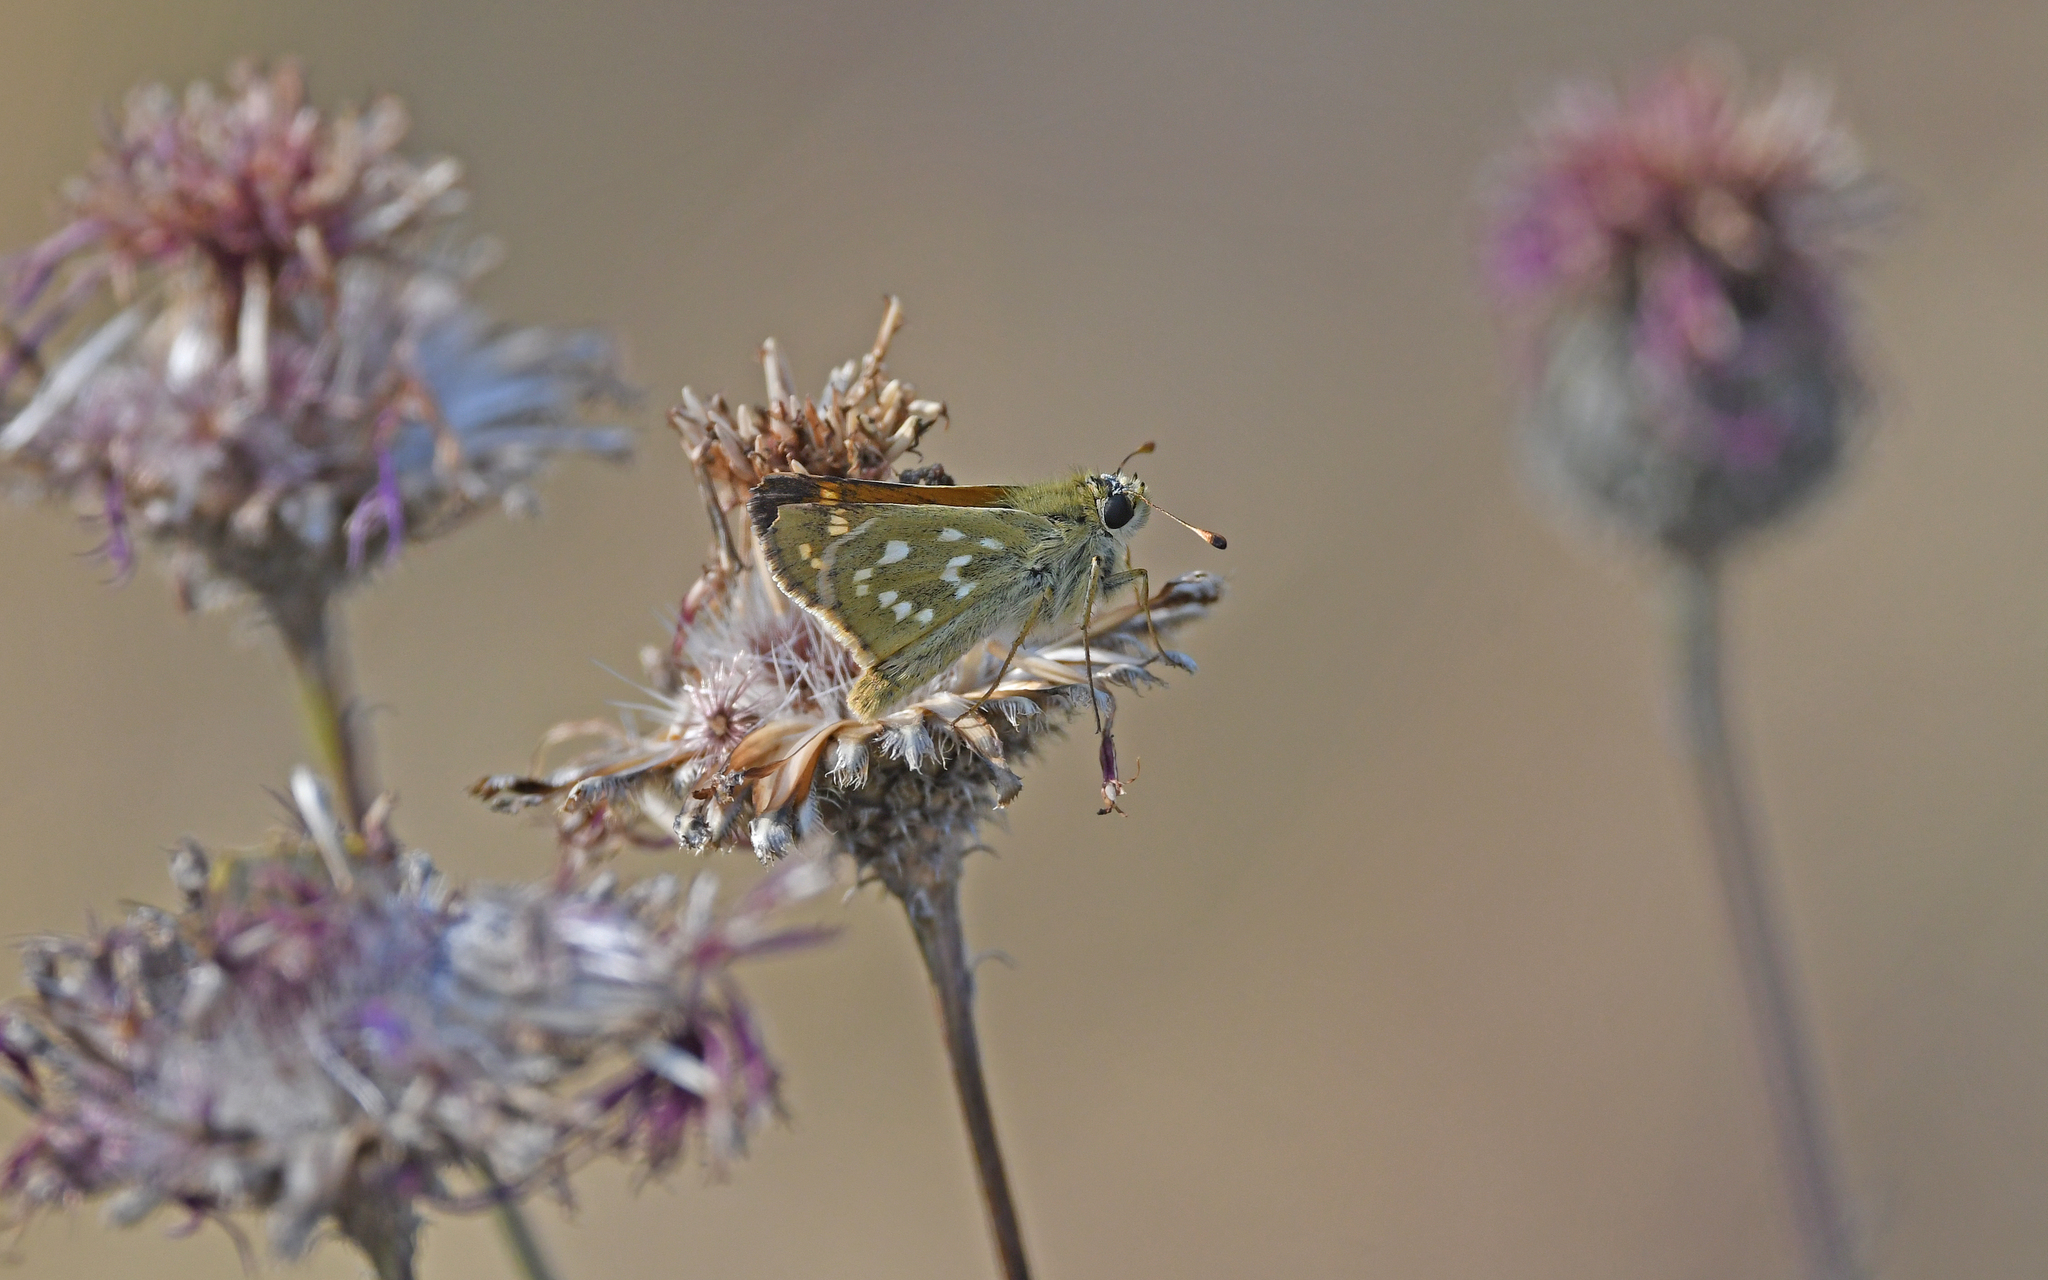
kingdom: Animalia
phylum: Arthropoda
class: Insecta
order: Lepidoptera
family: Hesperiidae
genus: Hesperia
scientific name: Hesperia comma
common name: Common branded skipper
